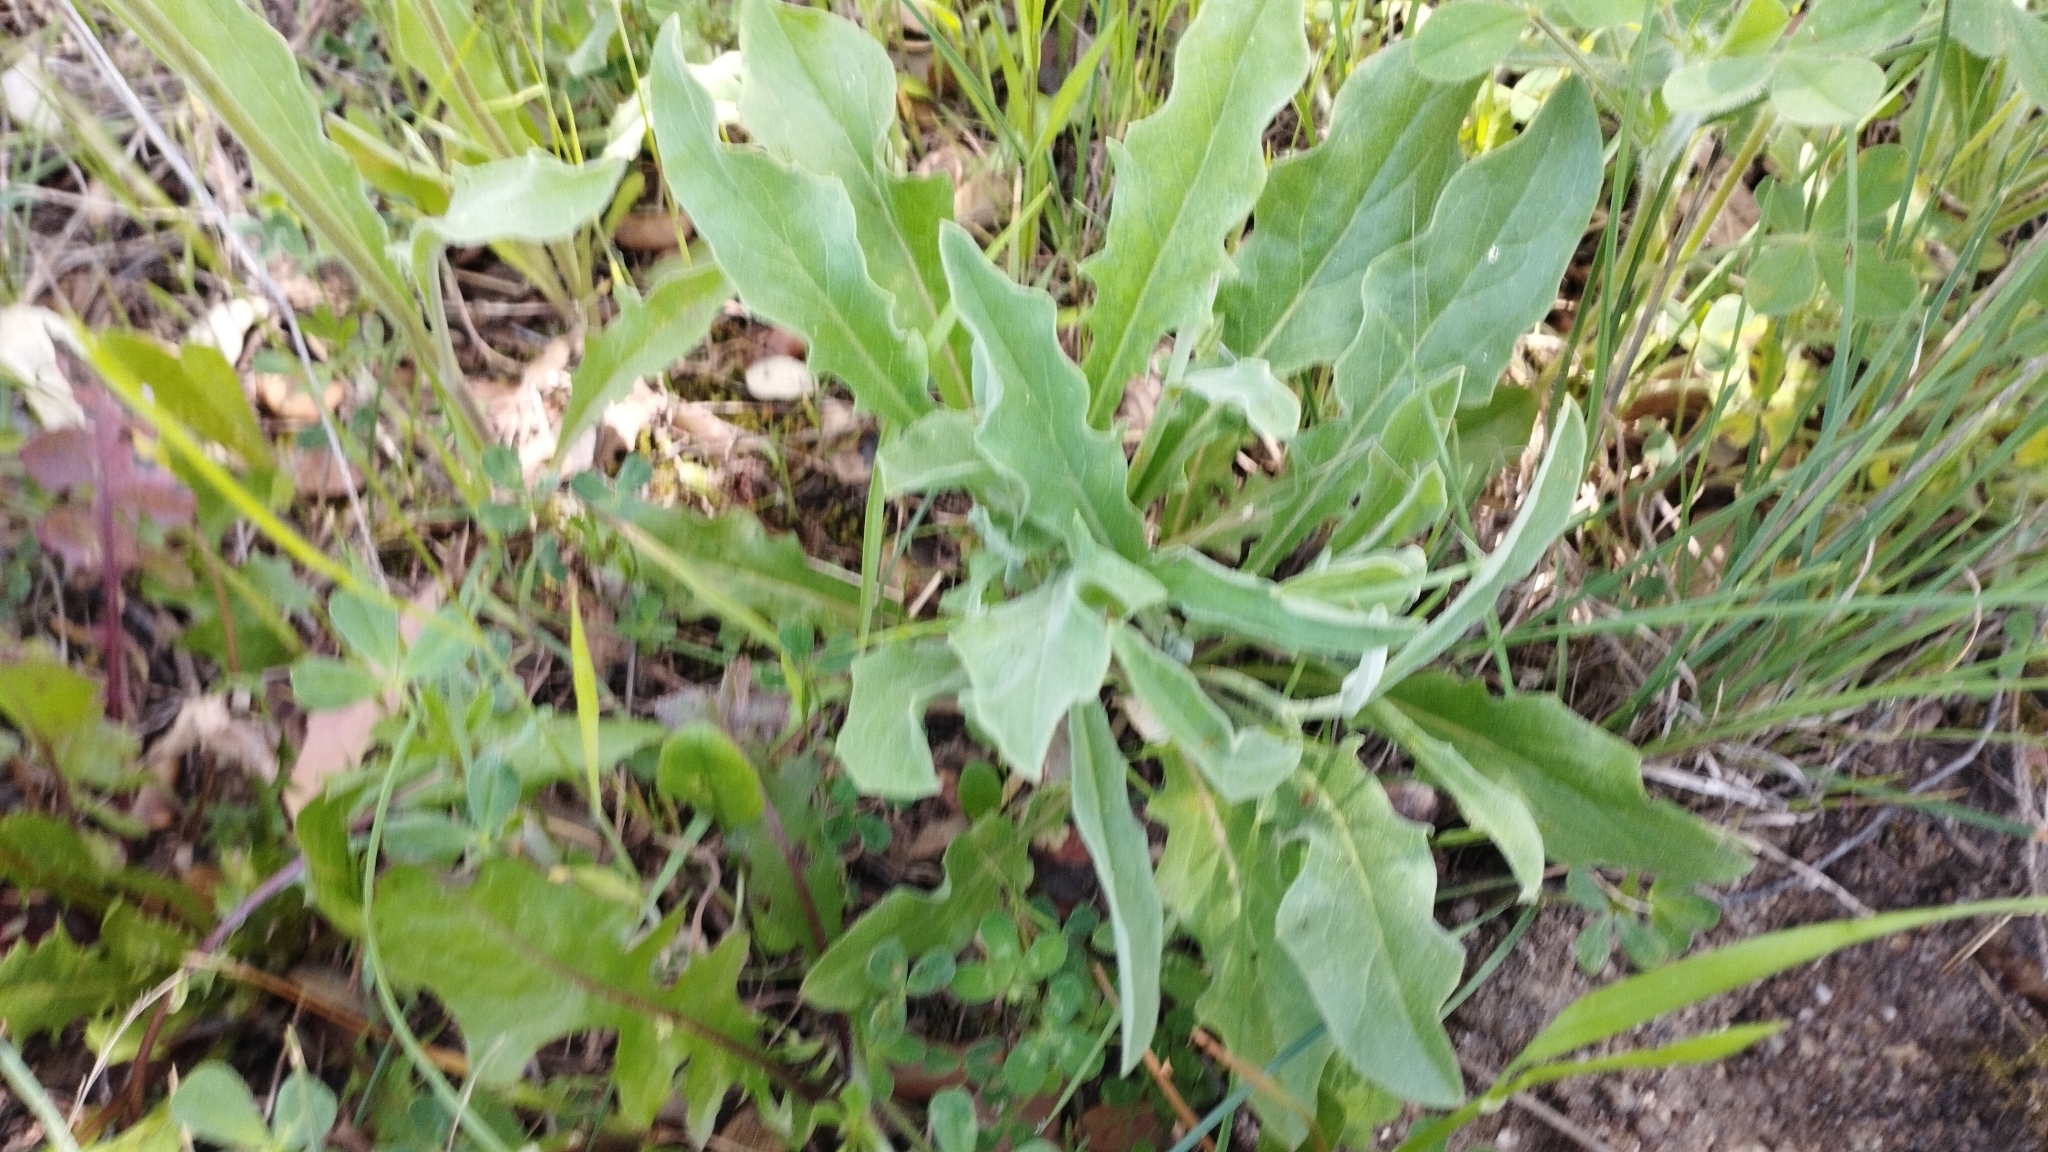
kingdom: Plantae
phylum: Tracheophyta
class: Magnoliopsida
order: Asterales
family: Asteraceae
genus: Andryala
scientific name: Andryala integrifolia
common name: Common andryala
